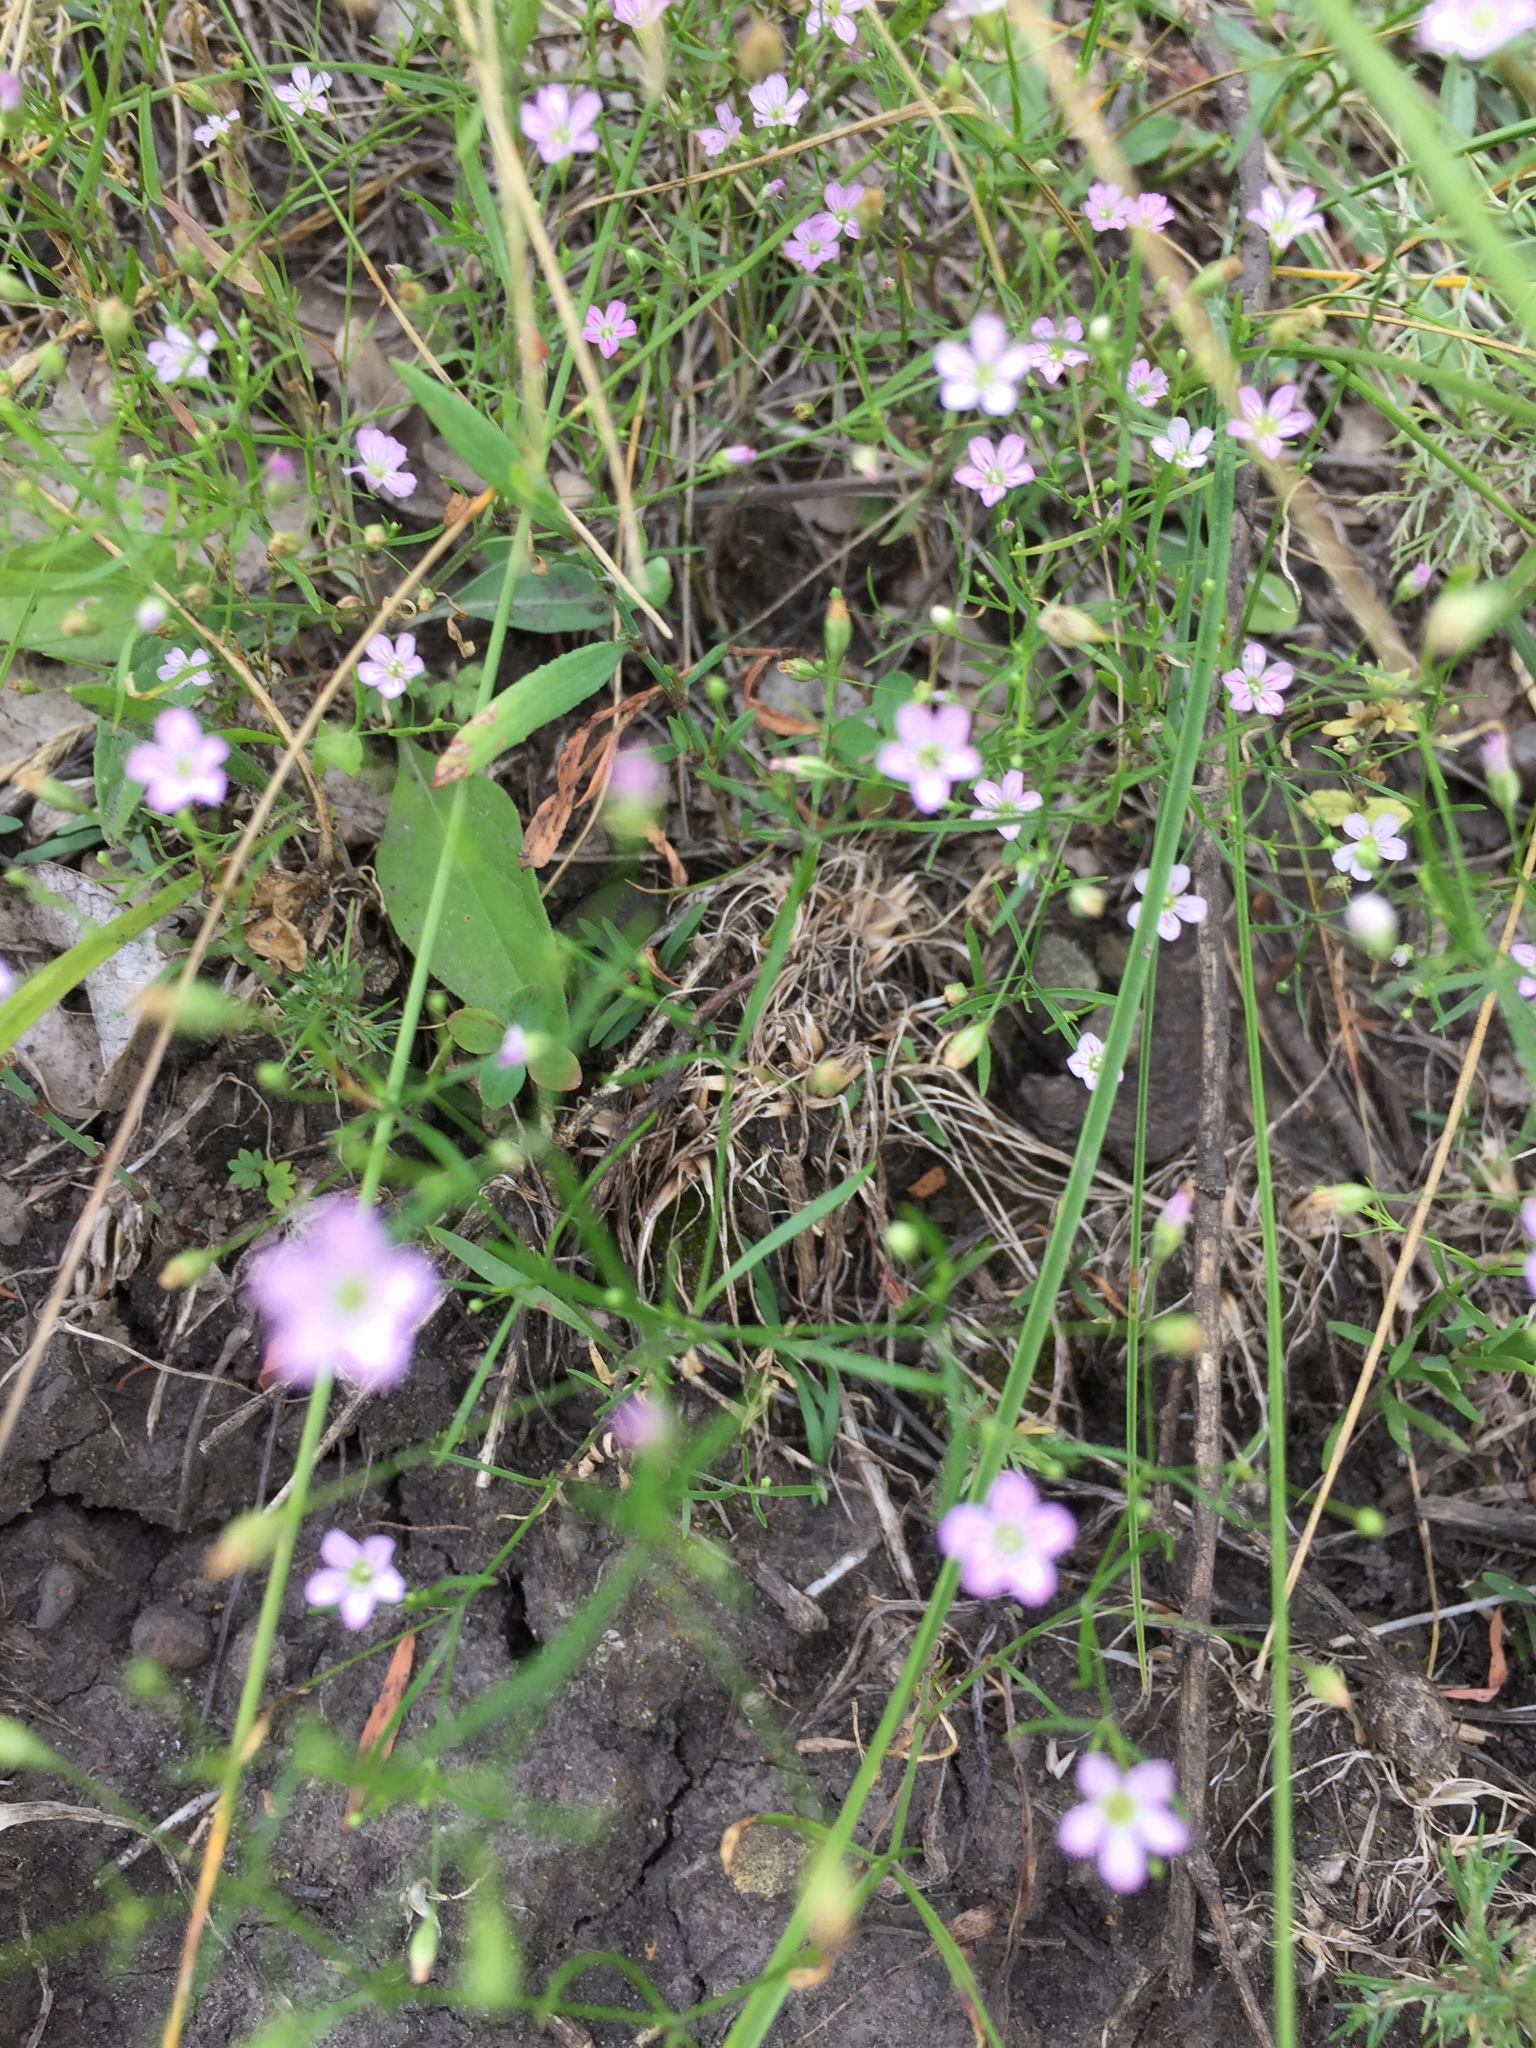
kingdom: Plantae
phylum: Tracheophyta
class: Magnoliopsida
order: Caryophyllales
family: Caryophyllaceae
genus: Psammophiliella
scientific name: Psammophiliella muralis
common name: Cushion baby's-breath
